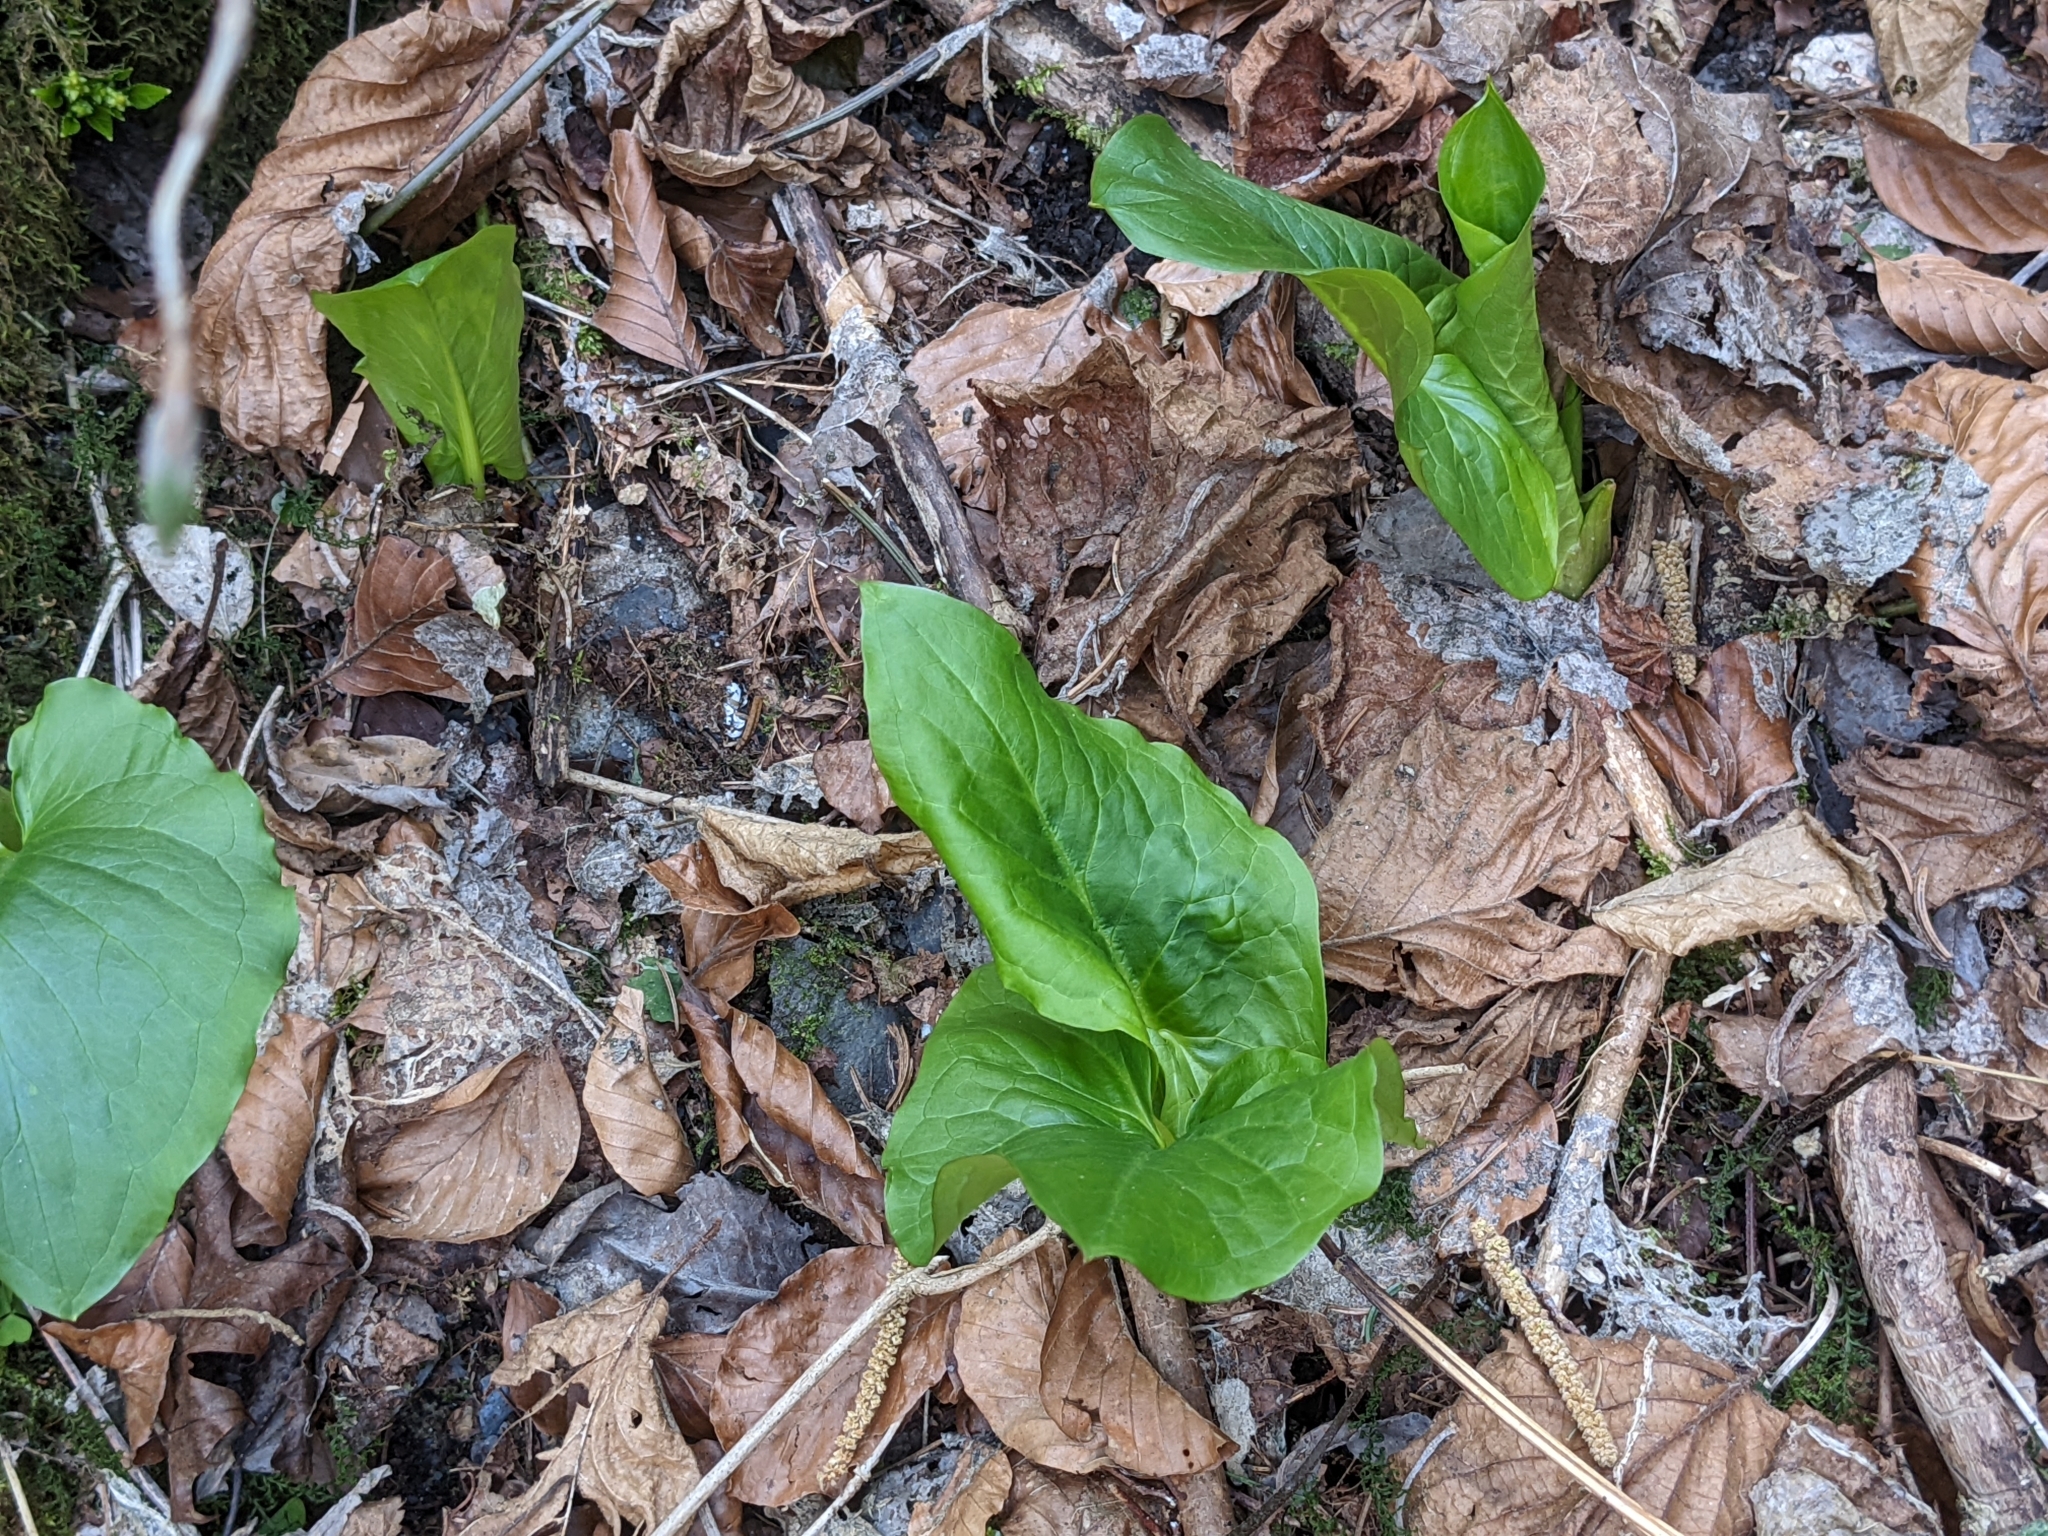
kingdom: Plantae
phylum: Tracheophyta
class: Liliopsida
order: Alismatales
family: Araceae
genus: Arum
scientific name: Arum maculatum
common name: Lords-and-ladies
